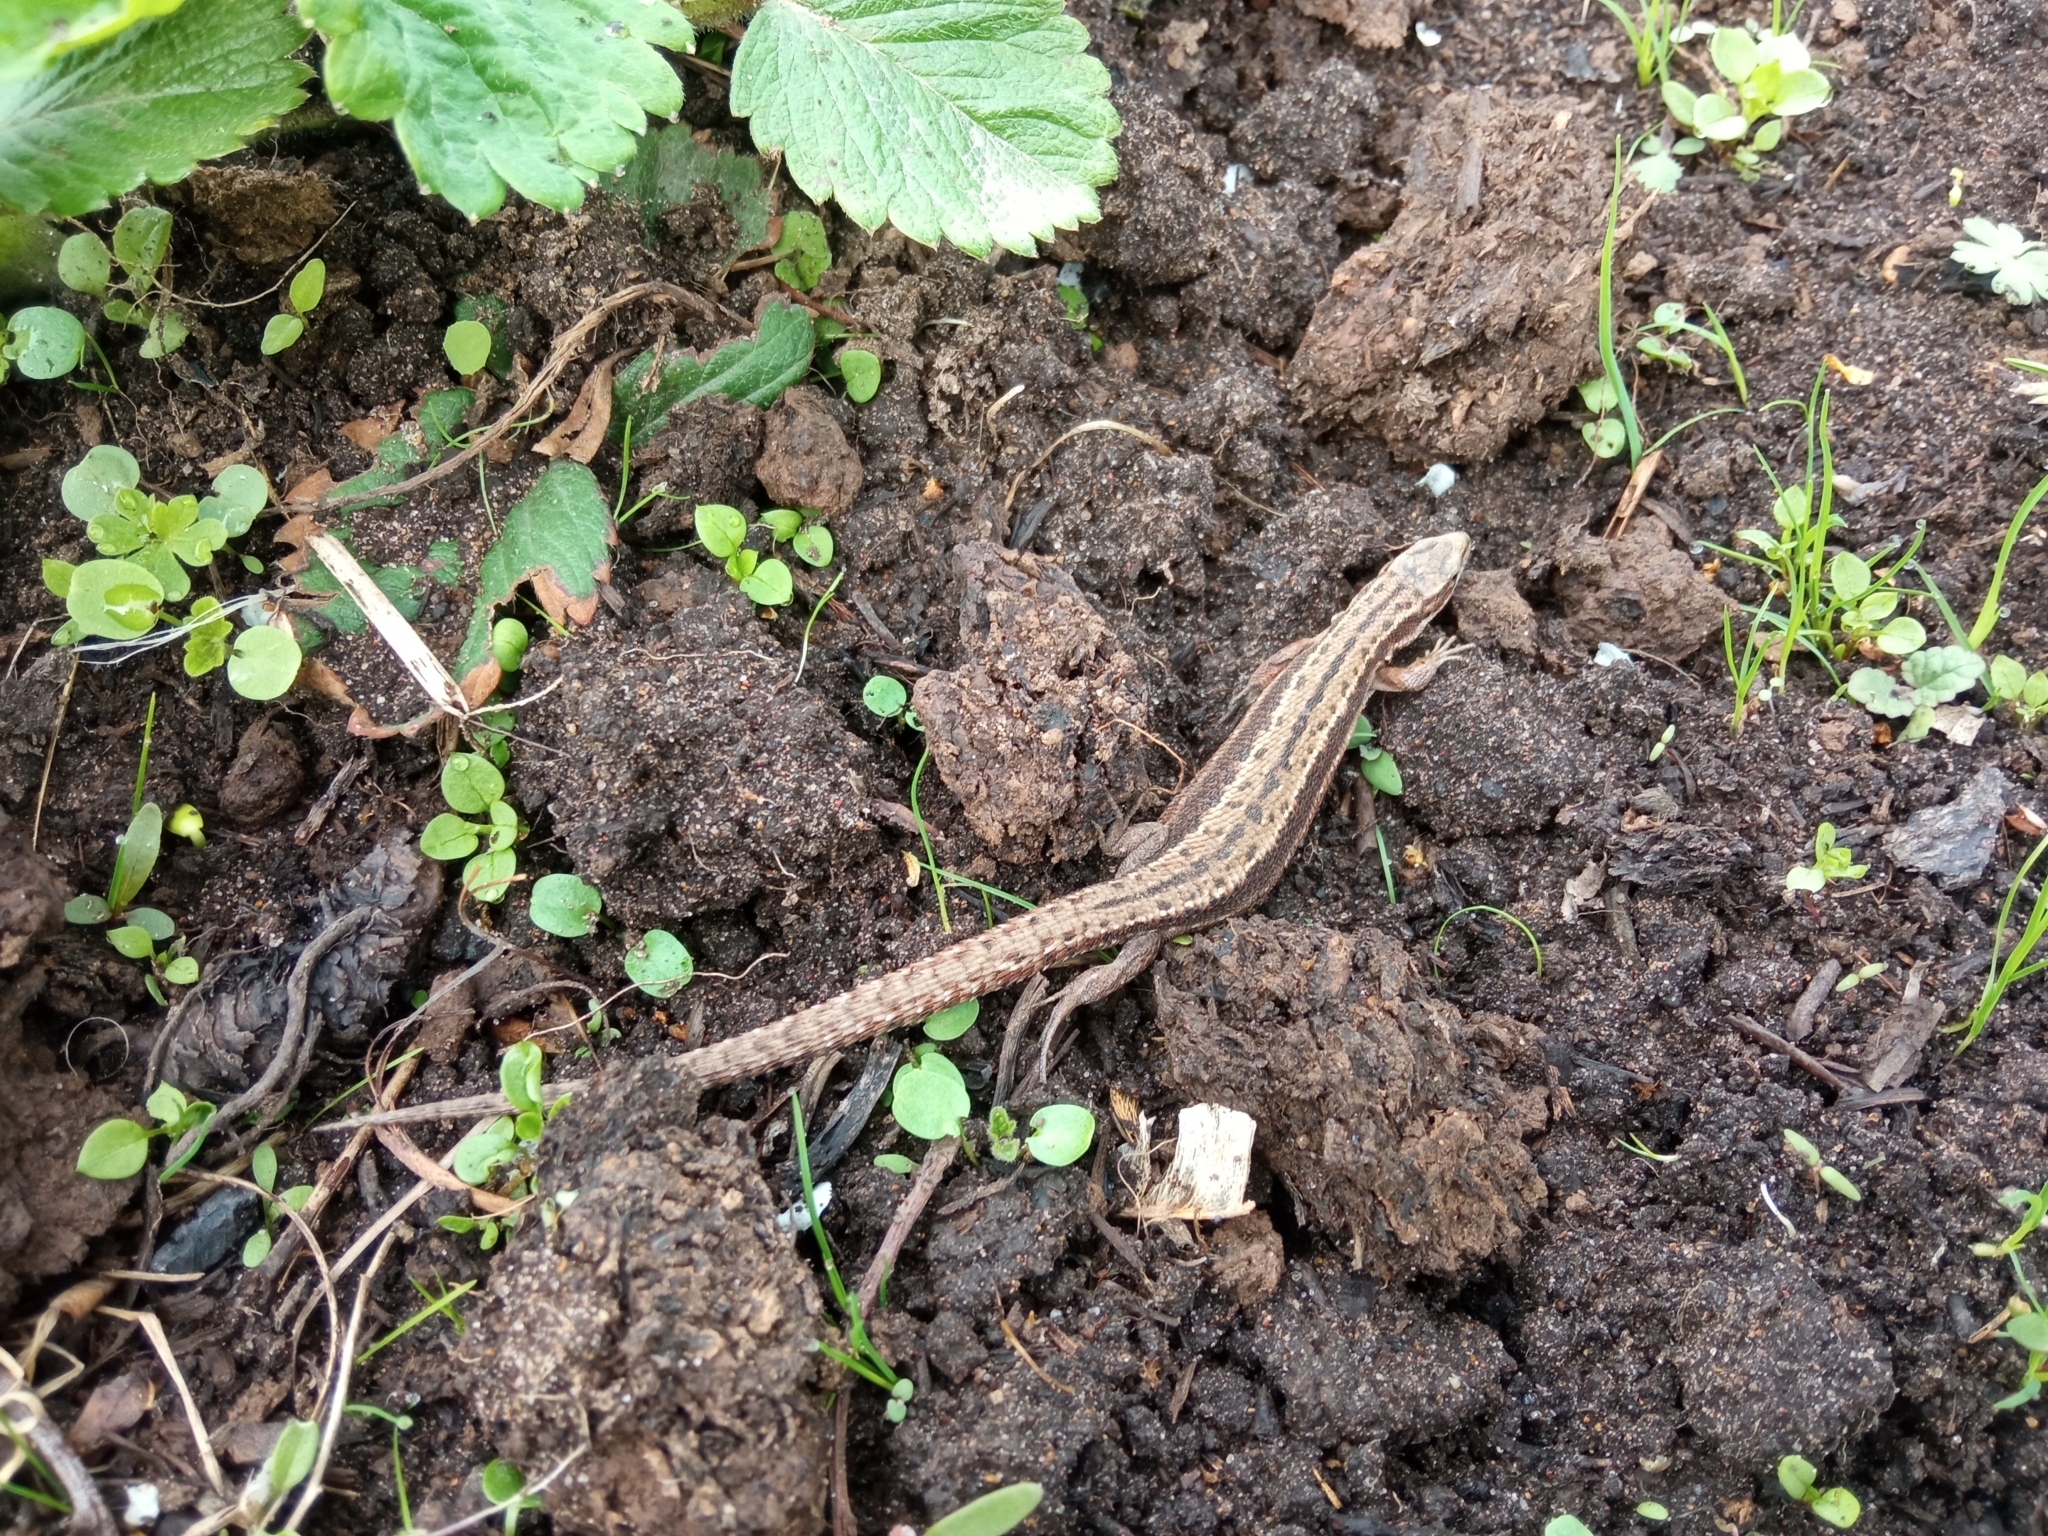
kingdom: Animalia
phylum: Chordata
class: Squamata
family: Lacertidae
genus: Zootoca
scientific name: Zootoca vivipara
